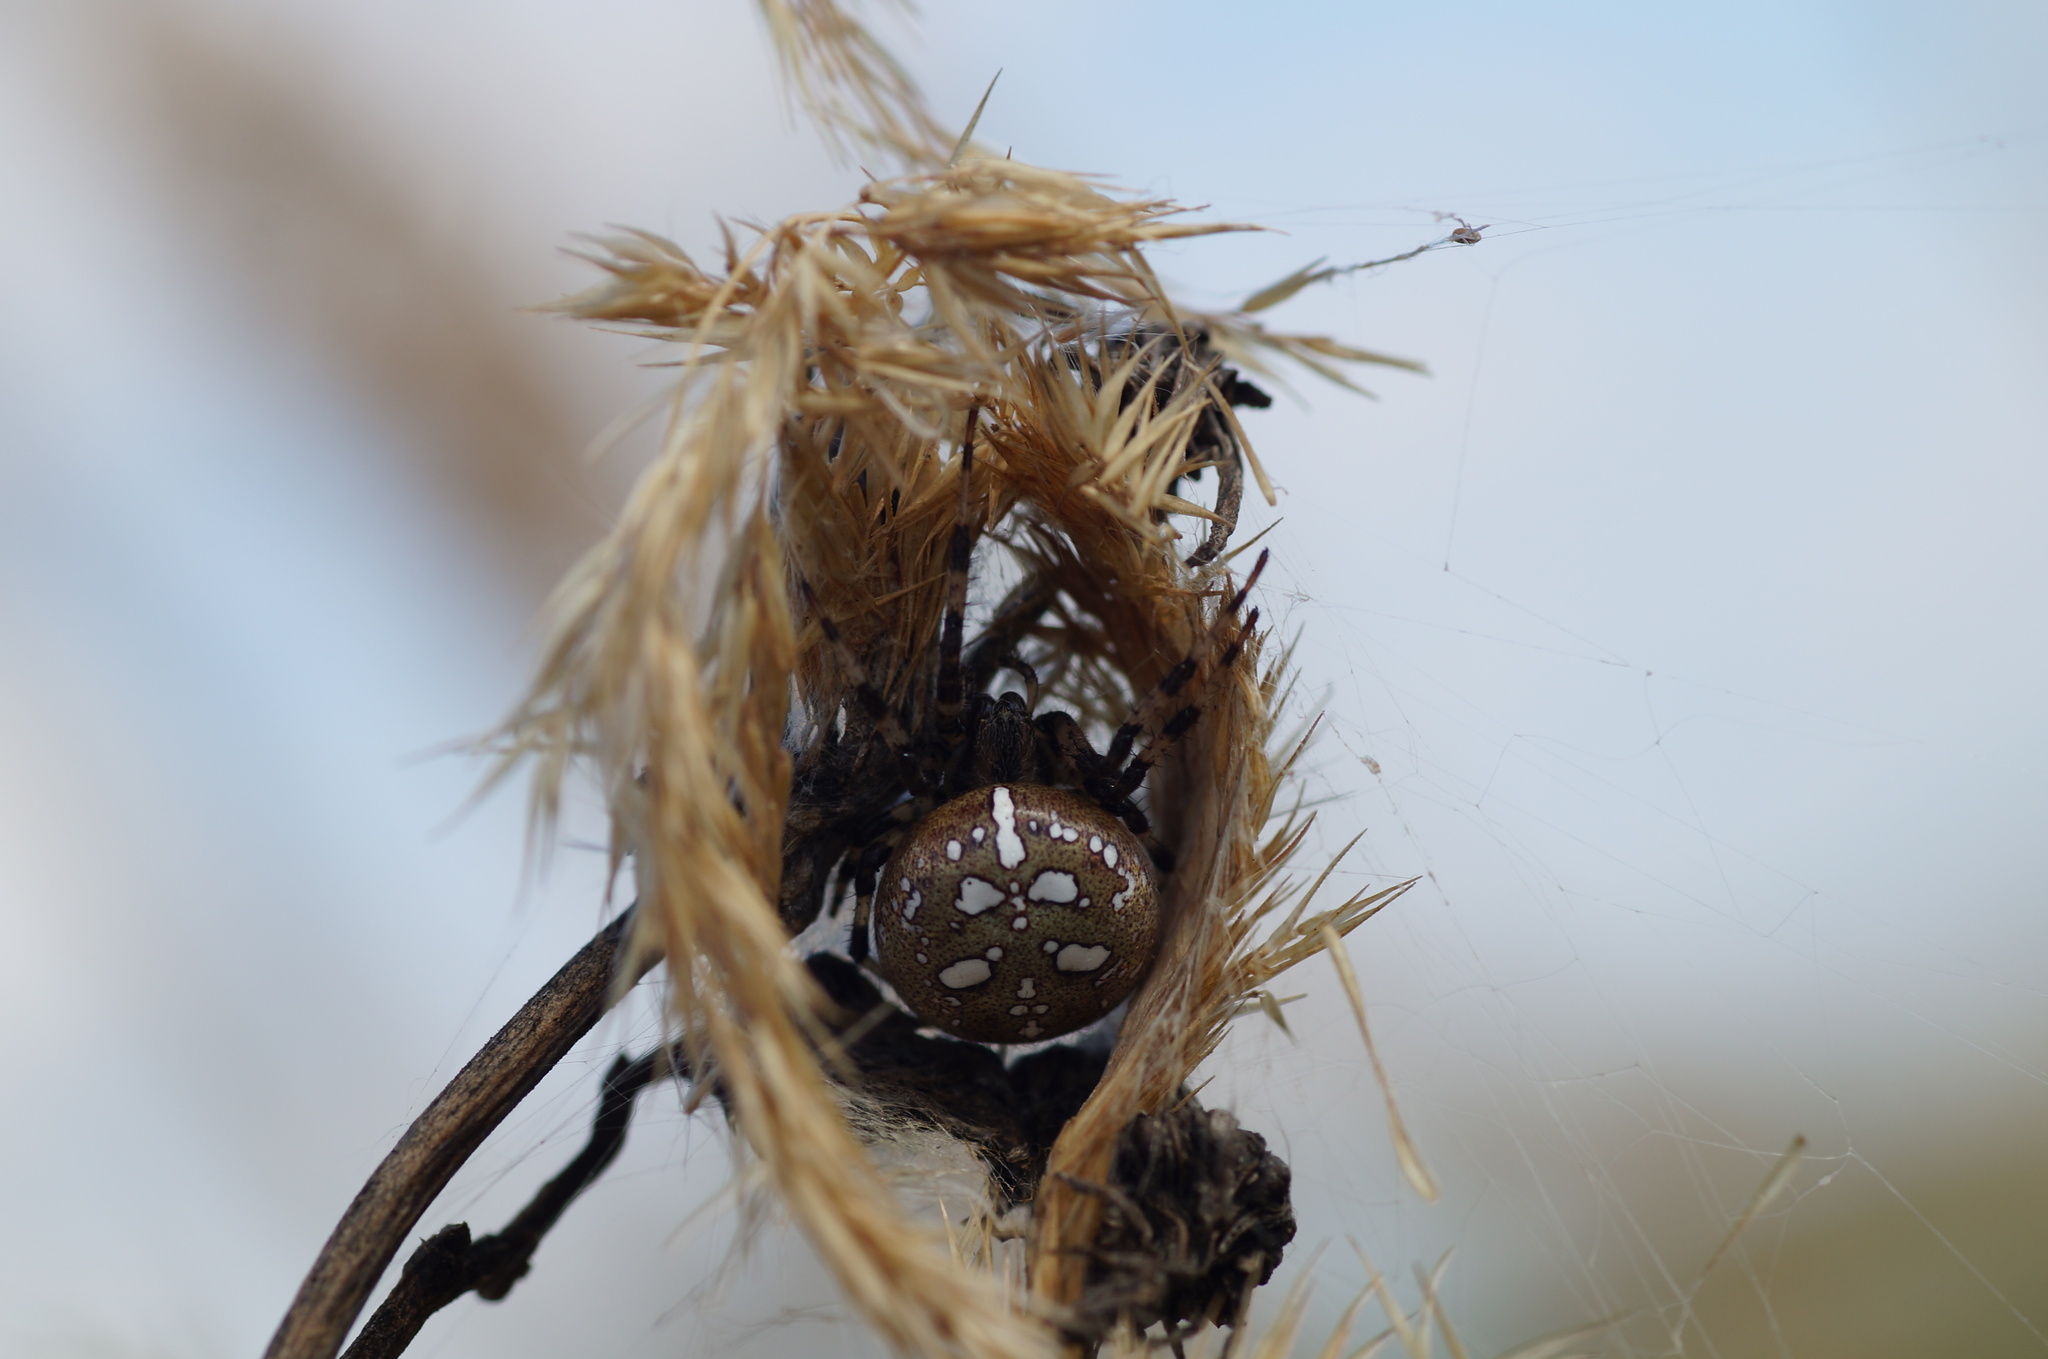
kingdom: Animalia
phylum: Arthropoda
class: Arachnida
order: Araneae
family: Araneidae
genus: Araneus
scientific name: Araneus quadratus
